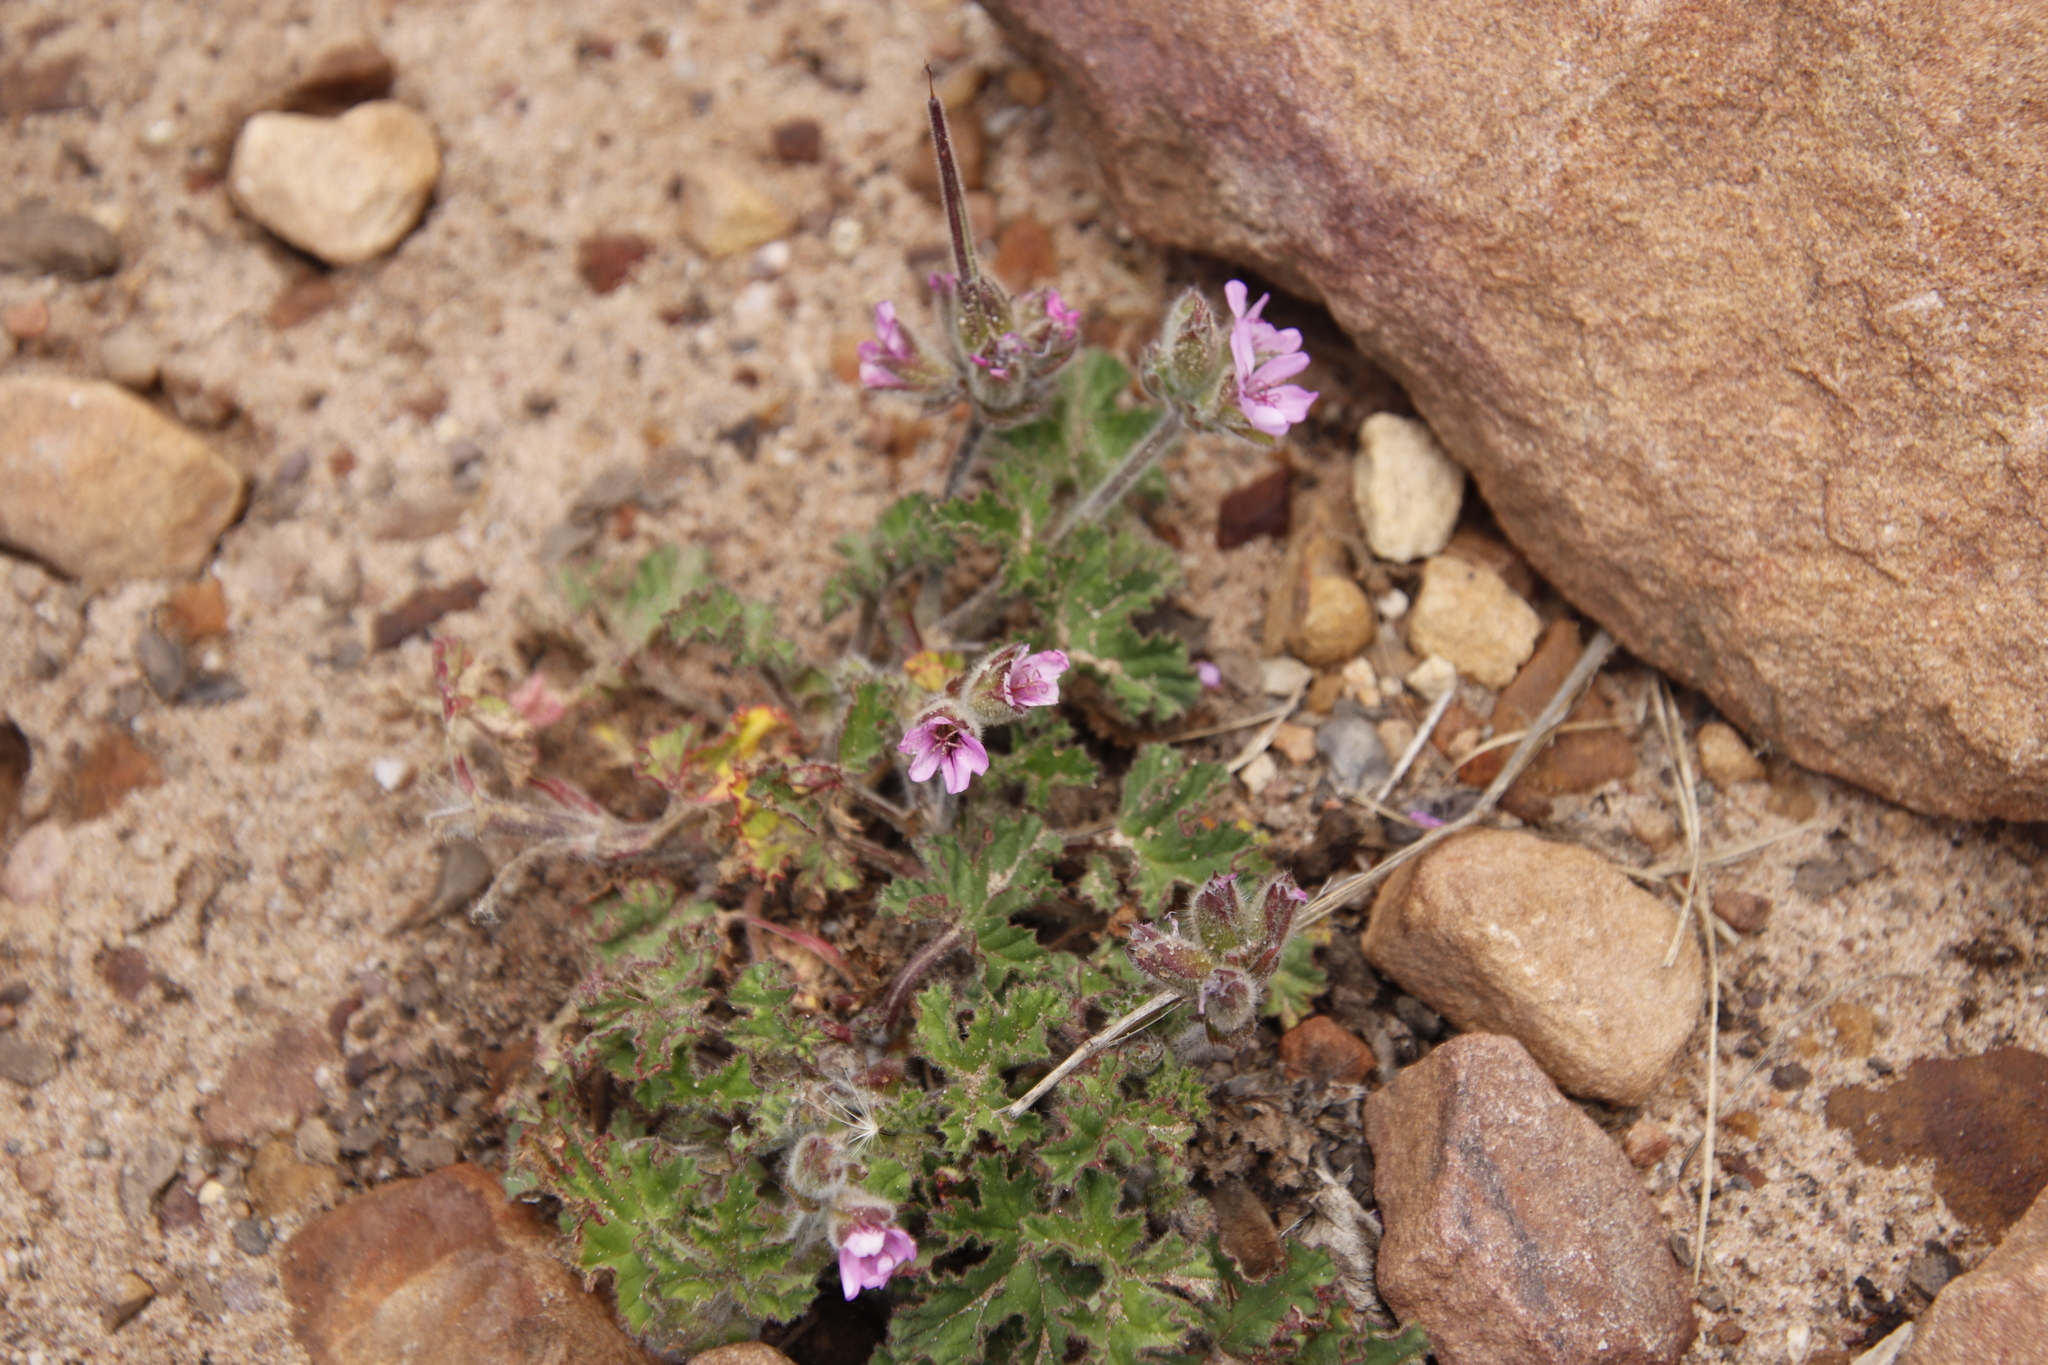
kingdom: Plantae
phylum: Tracheophyta
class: Magnoliopsida
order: Geraniales
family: Geraniaceae
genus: Pelargonium
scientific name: Pelargonium capitatum
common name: Rose scented geranium
